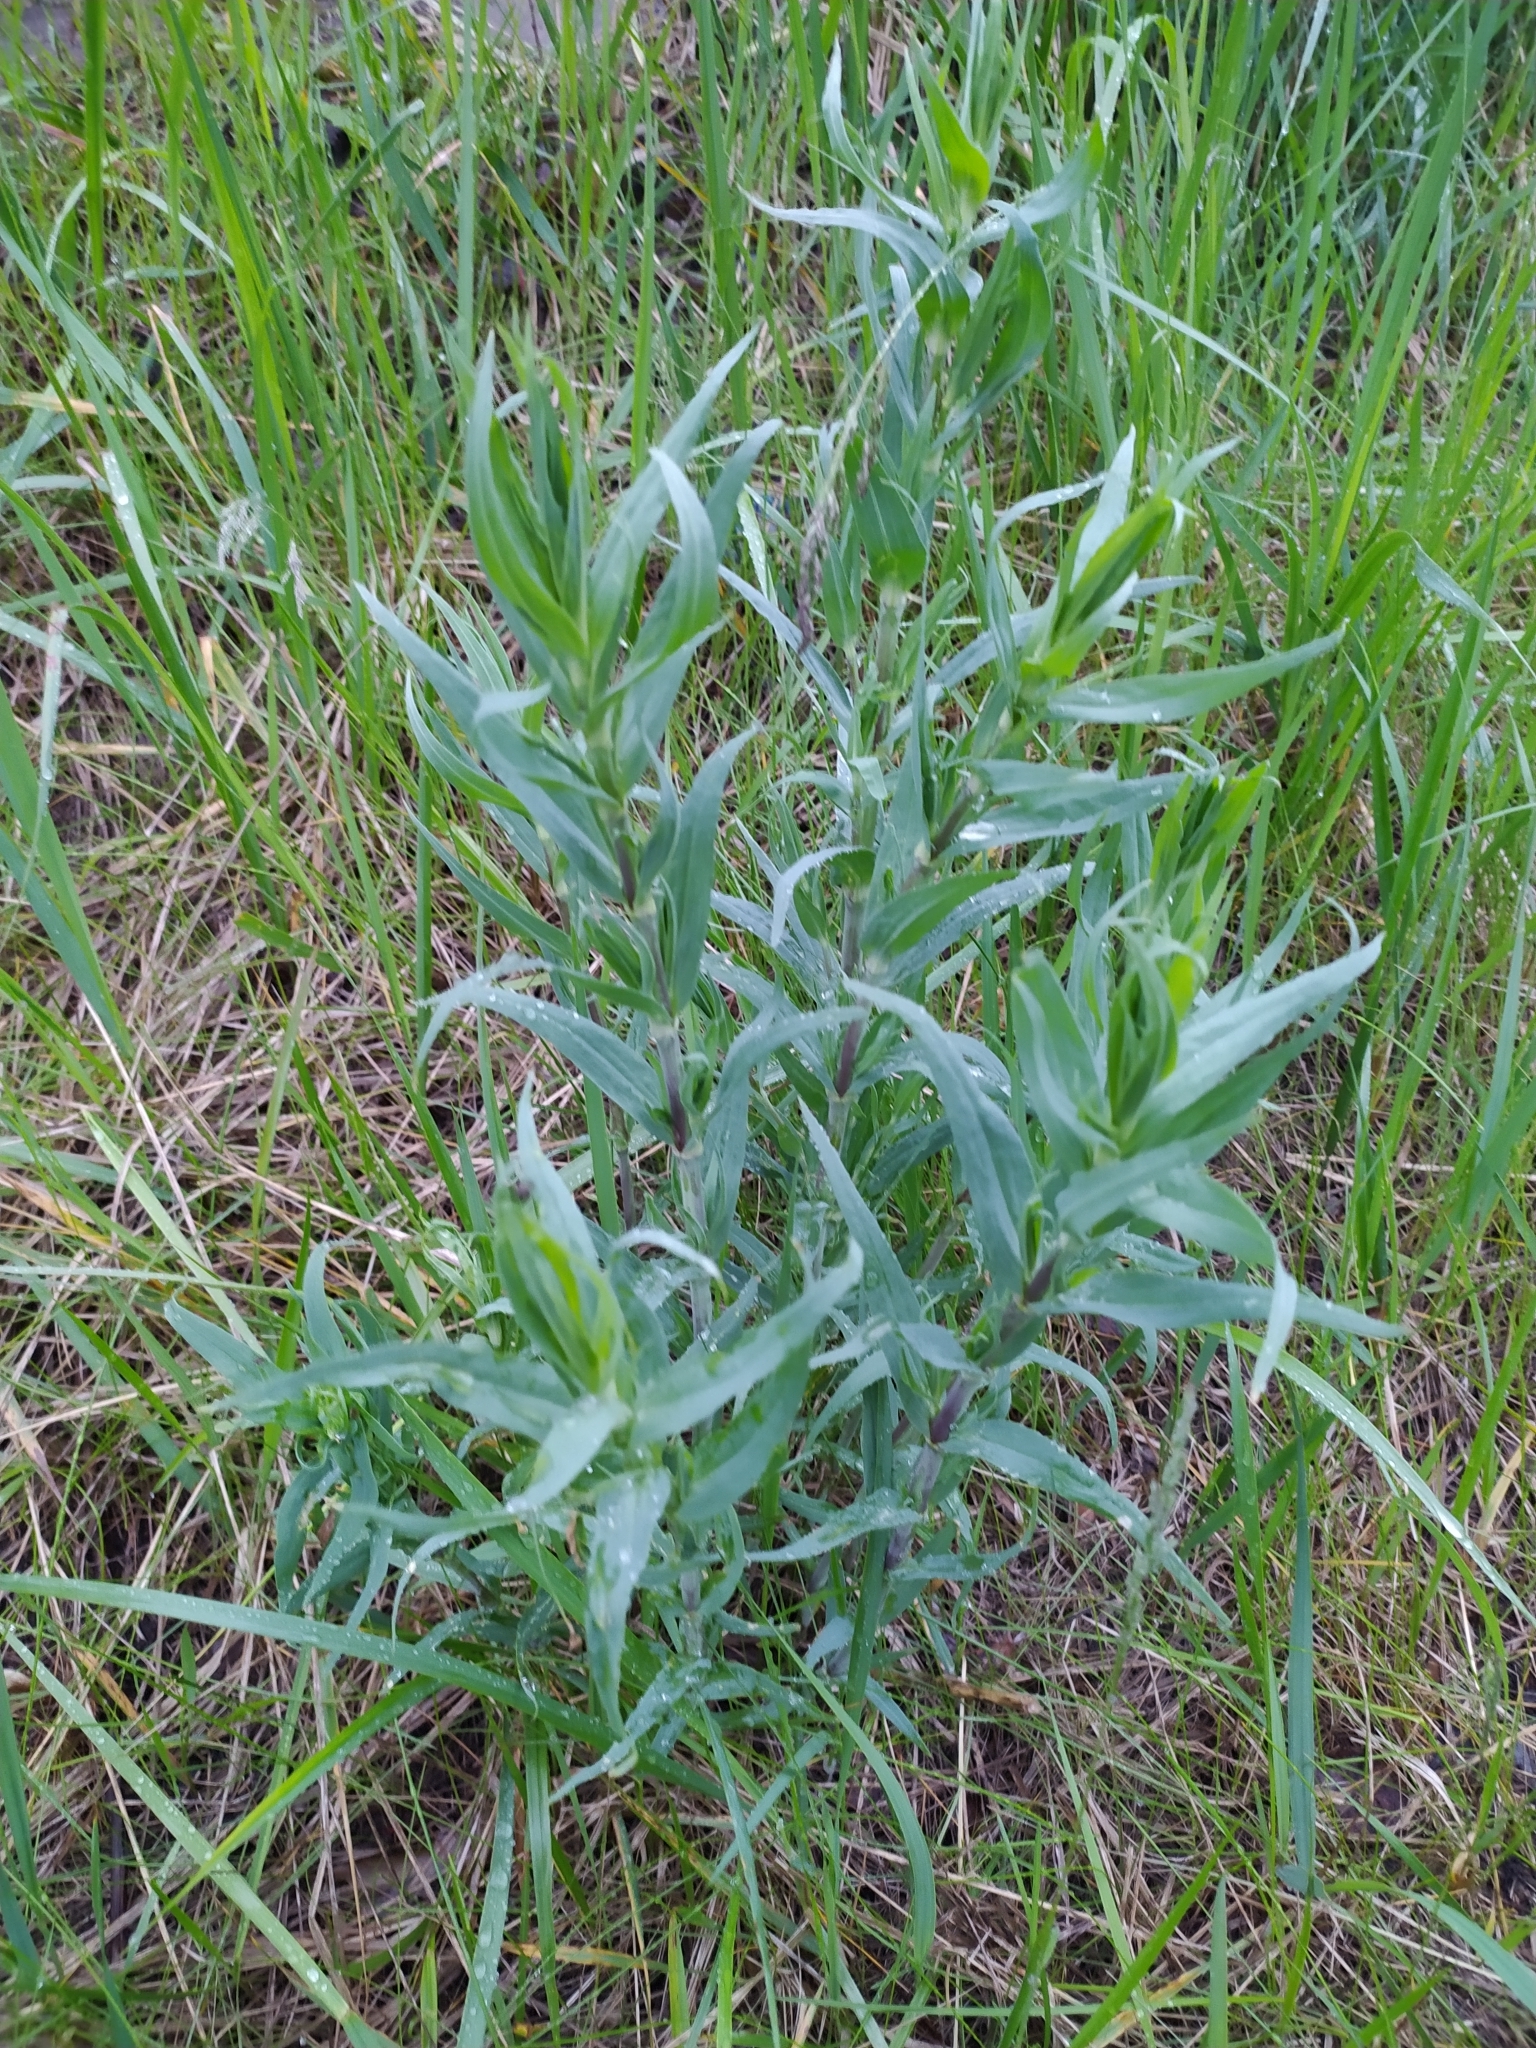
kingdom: Plantae
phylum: Tracheophyta
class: Magnoliopsida
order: Caryophyllales
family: Caryophyllaceae
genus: Gypsophila
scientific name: Gypsophila paniculata
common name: Baby's-breath
